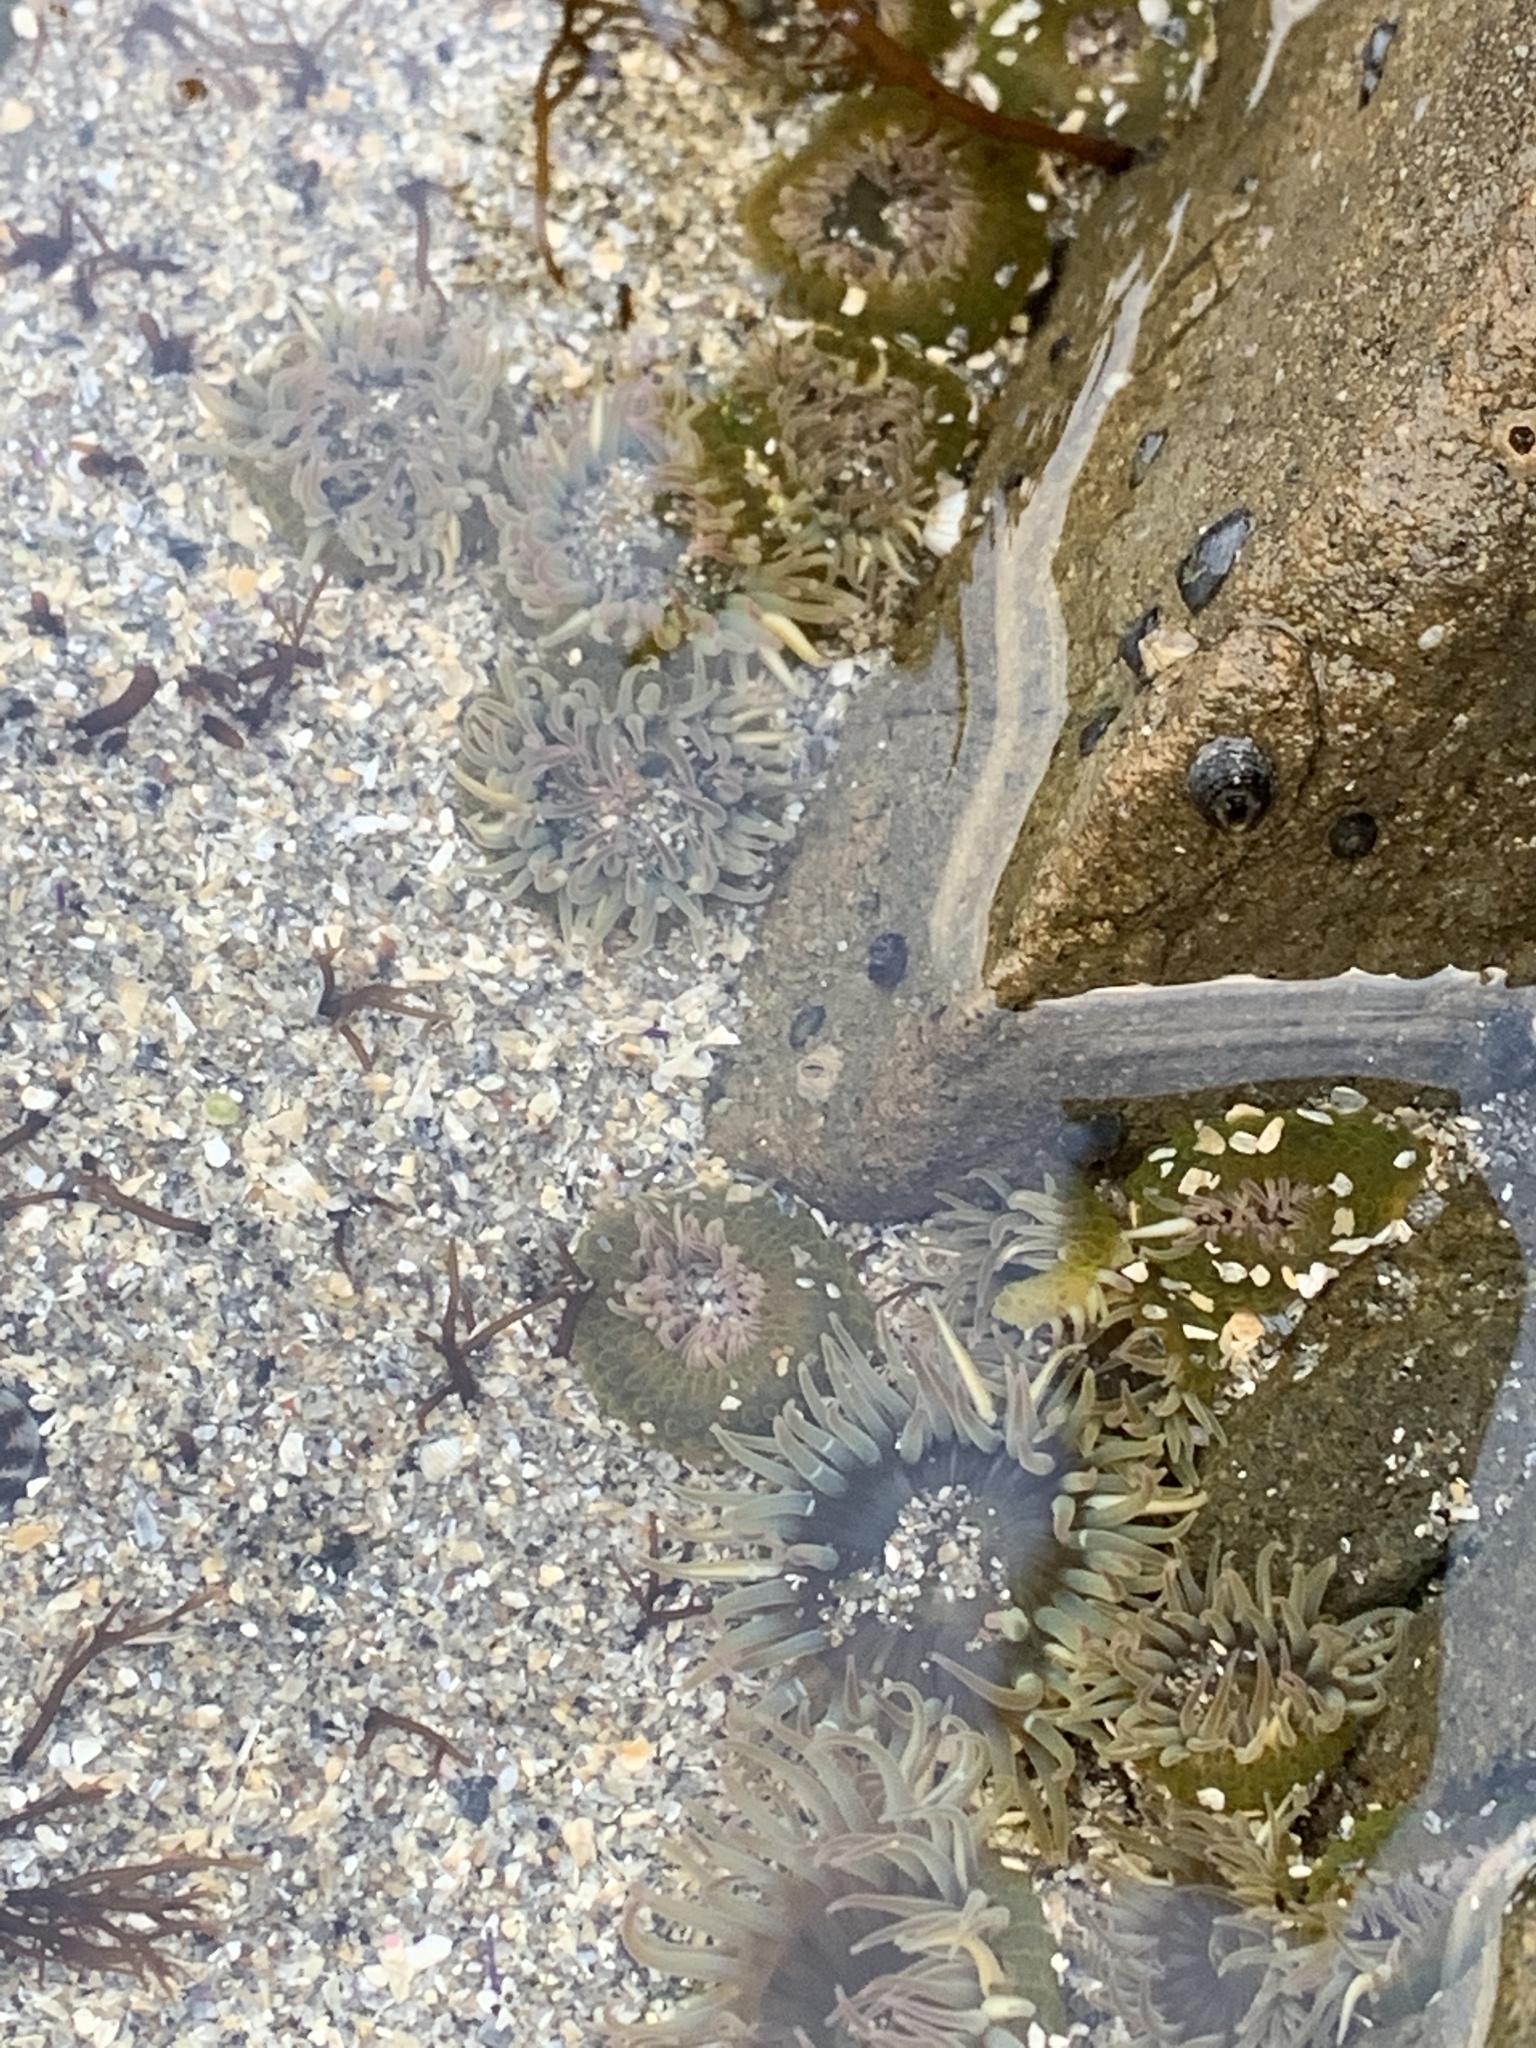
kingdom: Animalia
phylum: Cnidaria
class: Anthozoa
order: Actiniaria
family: Actiniidae
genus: Anthopleura
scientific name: Anthopleura elegantissima
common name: Clonal anemone
